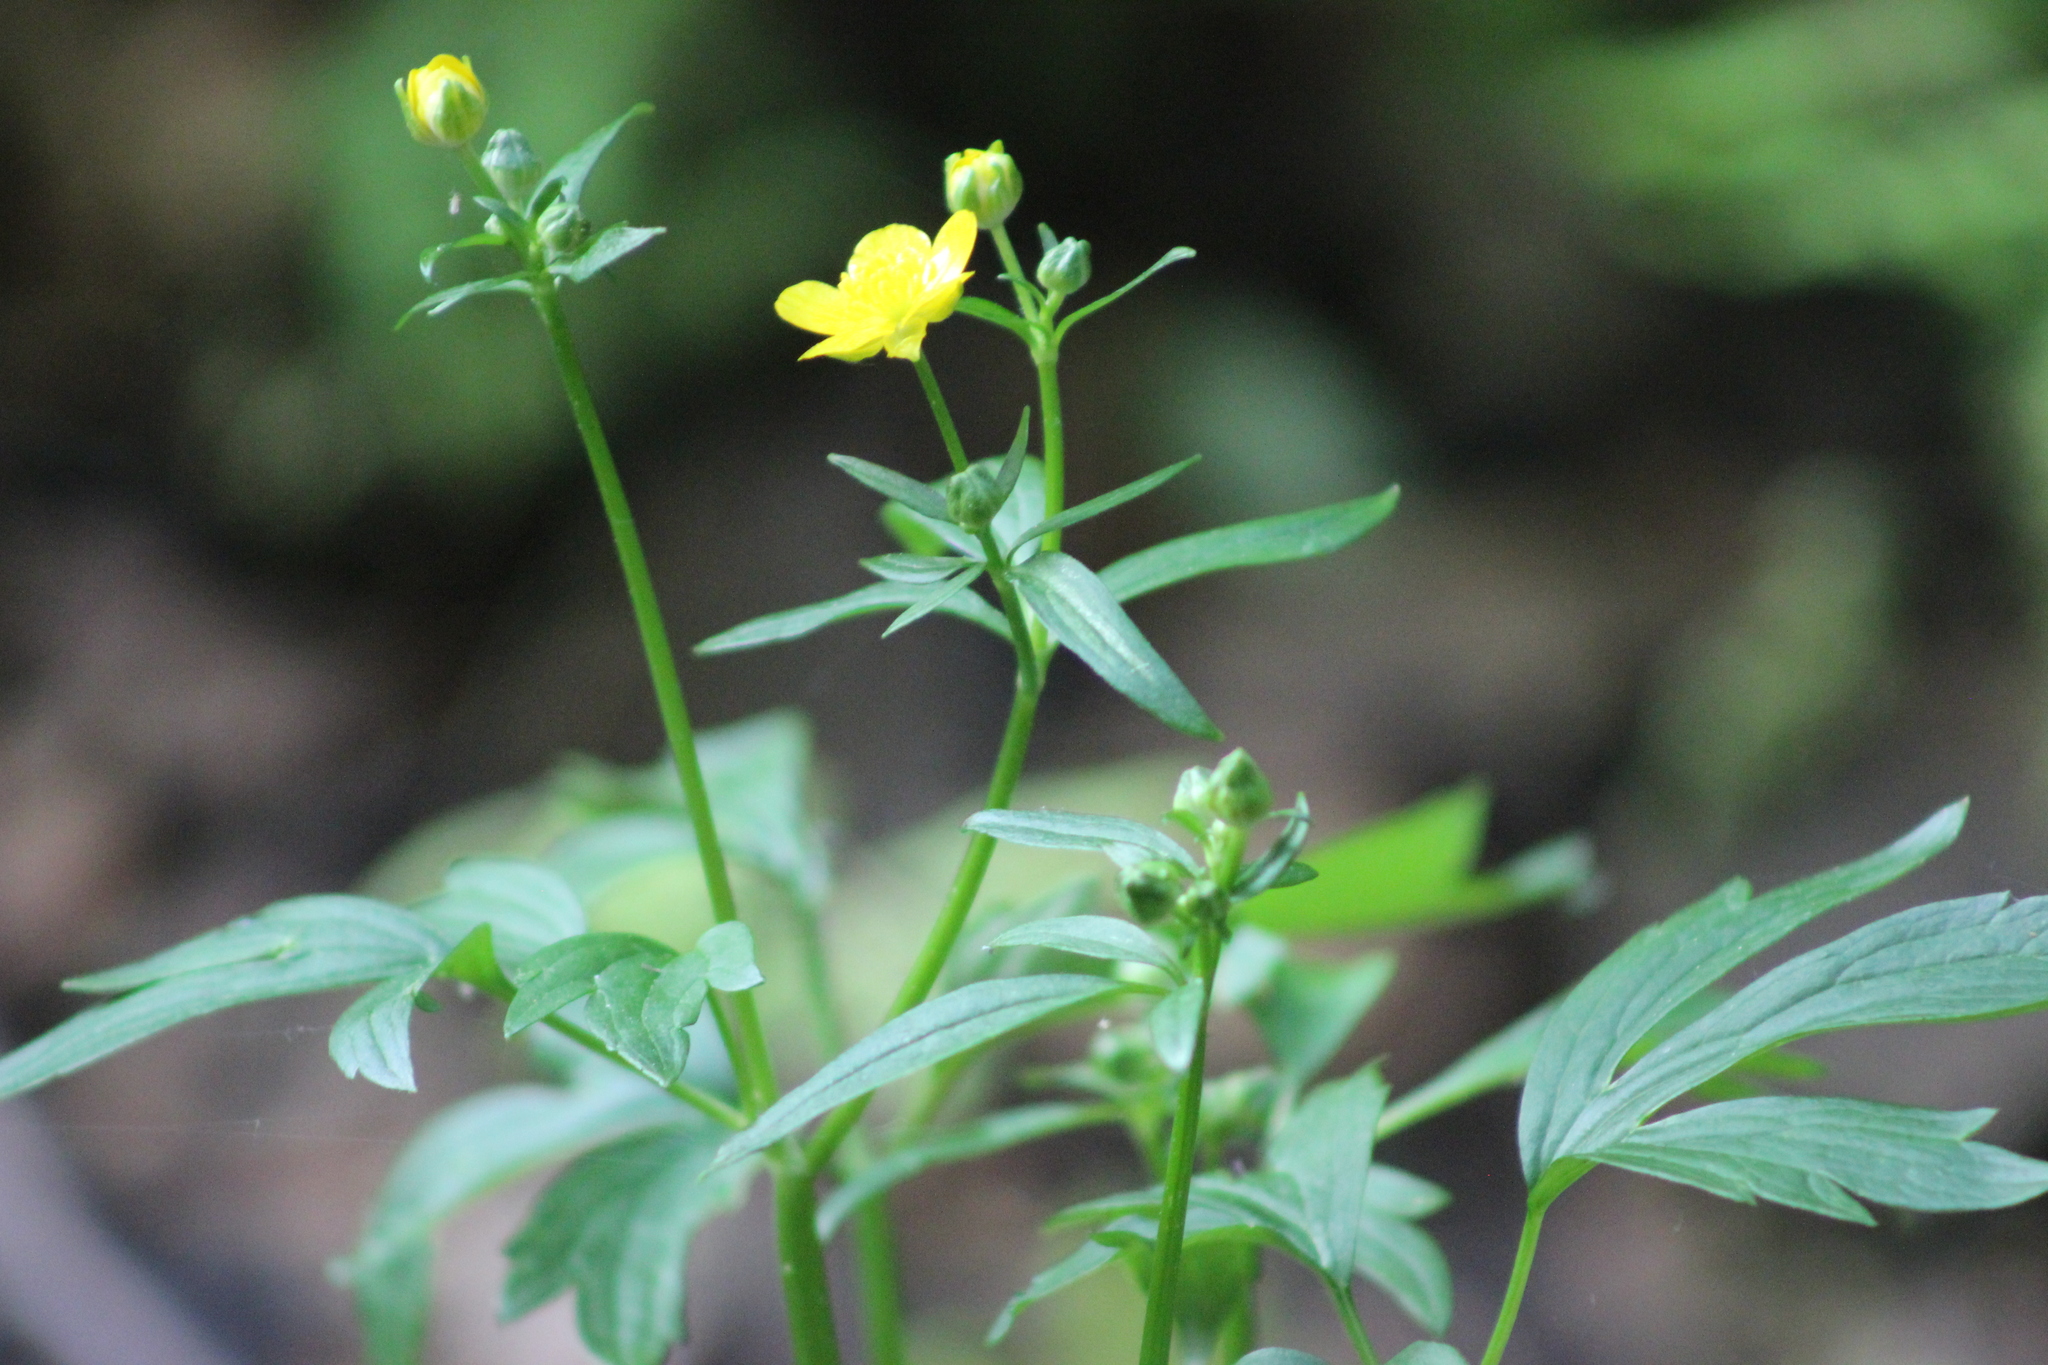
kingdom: Plantae
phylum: Tracheophyta
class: Magnoliopsida
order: Ranunculales
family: Ranunculaceae
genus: Ranunculus
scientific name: Ranunculus repens
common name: Creeping buttercup
